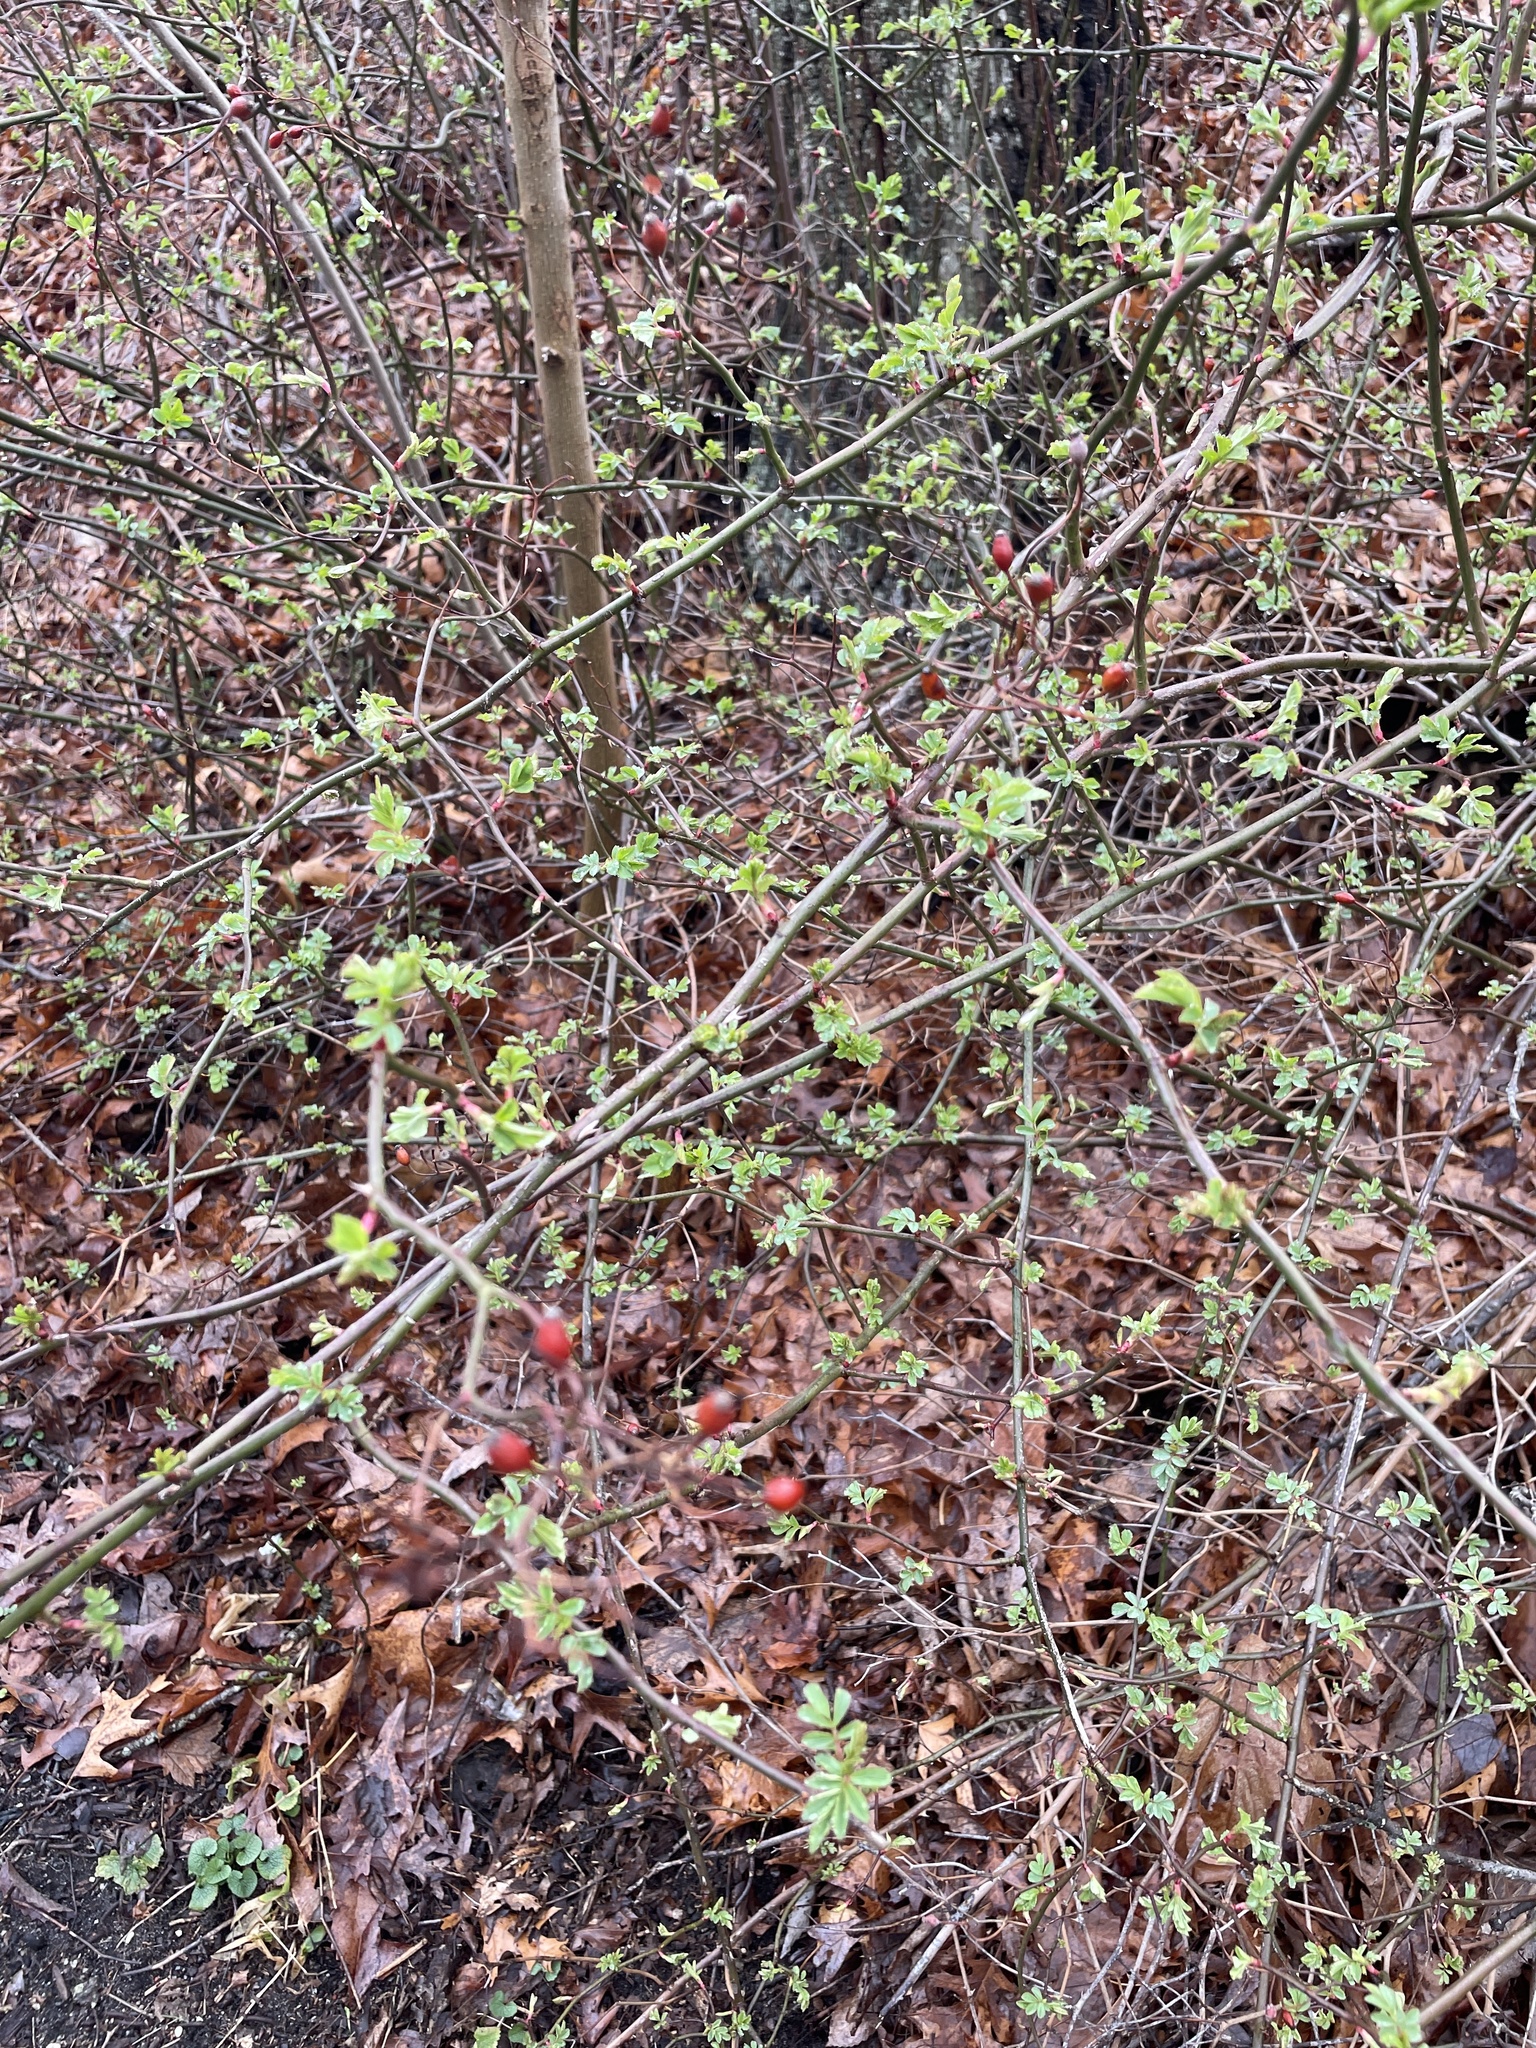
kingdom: Plantae
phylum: Tracheophyta
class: Magnoliopsida
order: Rosales
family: Rosaceae
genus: Rosa
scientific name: Rosa multiflora
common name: Multiflora rose
